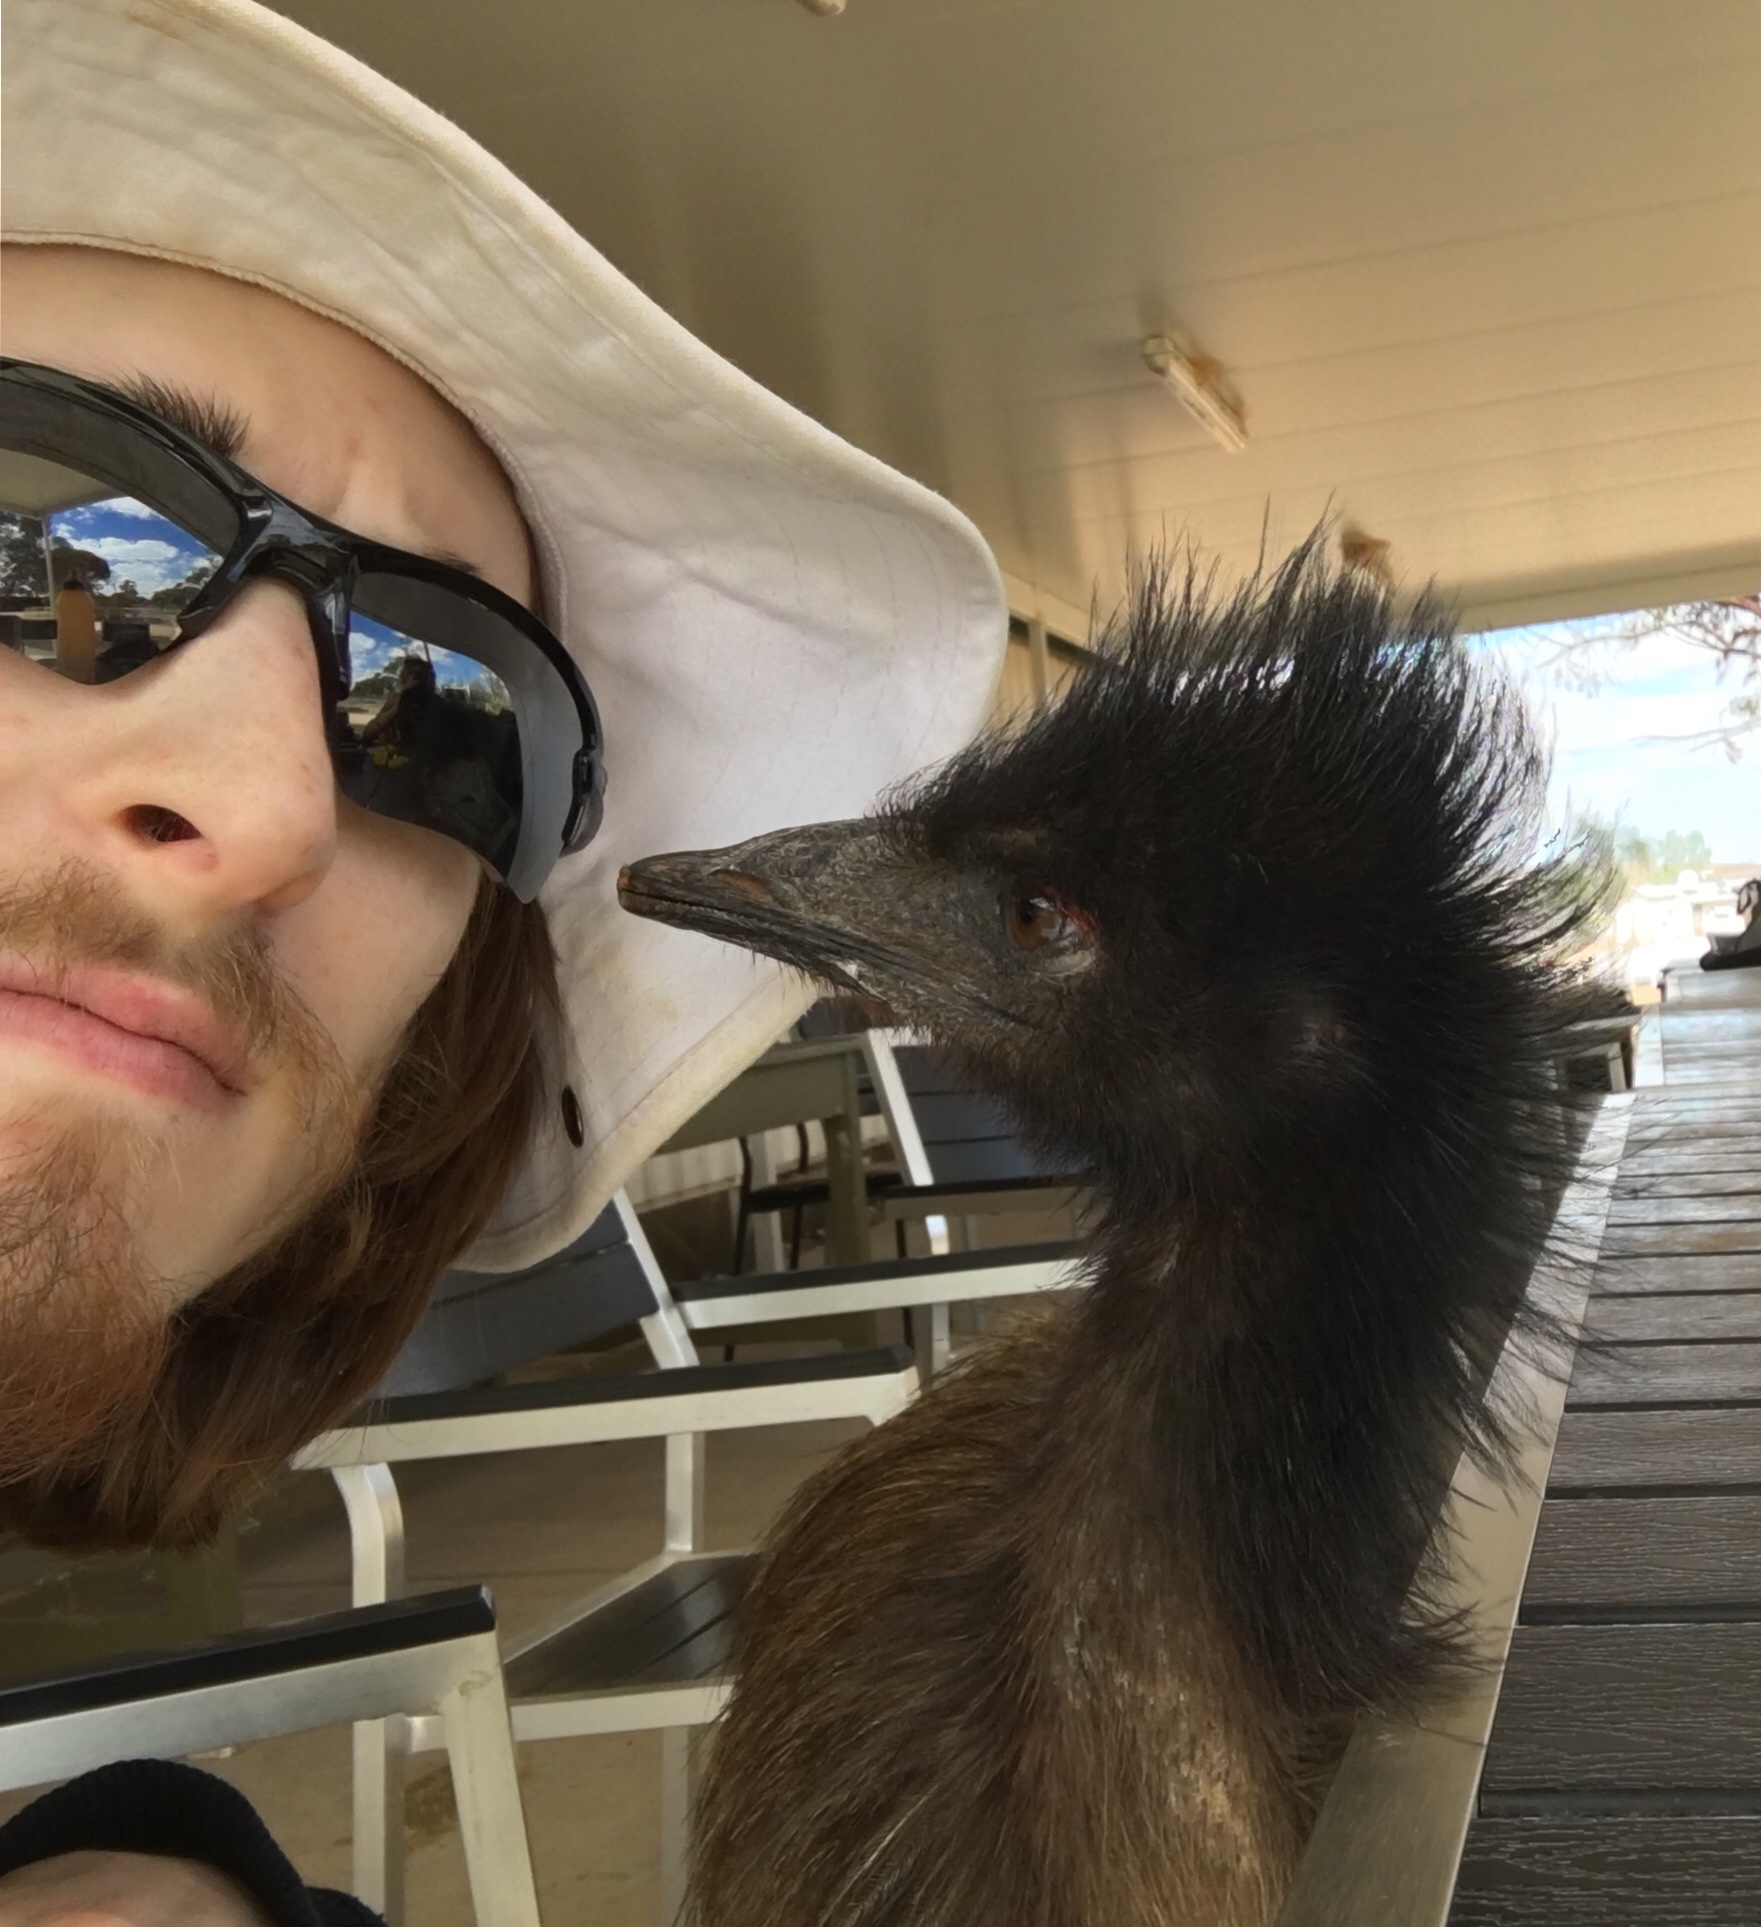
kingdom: Animalia
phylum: Chordata
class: Aves
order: Casuariiformes
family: Dromaiidae
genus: Dromaius
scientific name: Dromaius novaehollandiae
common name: Emu
